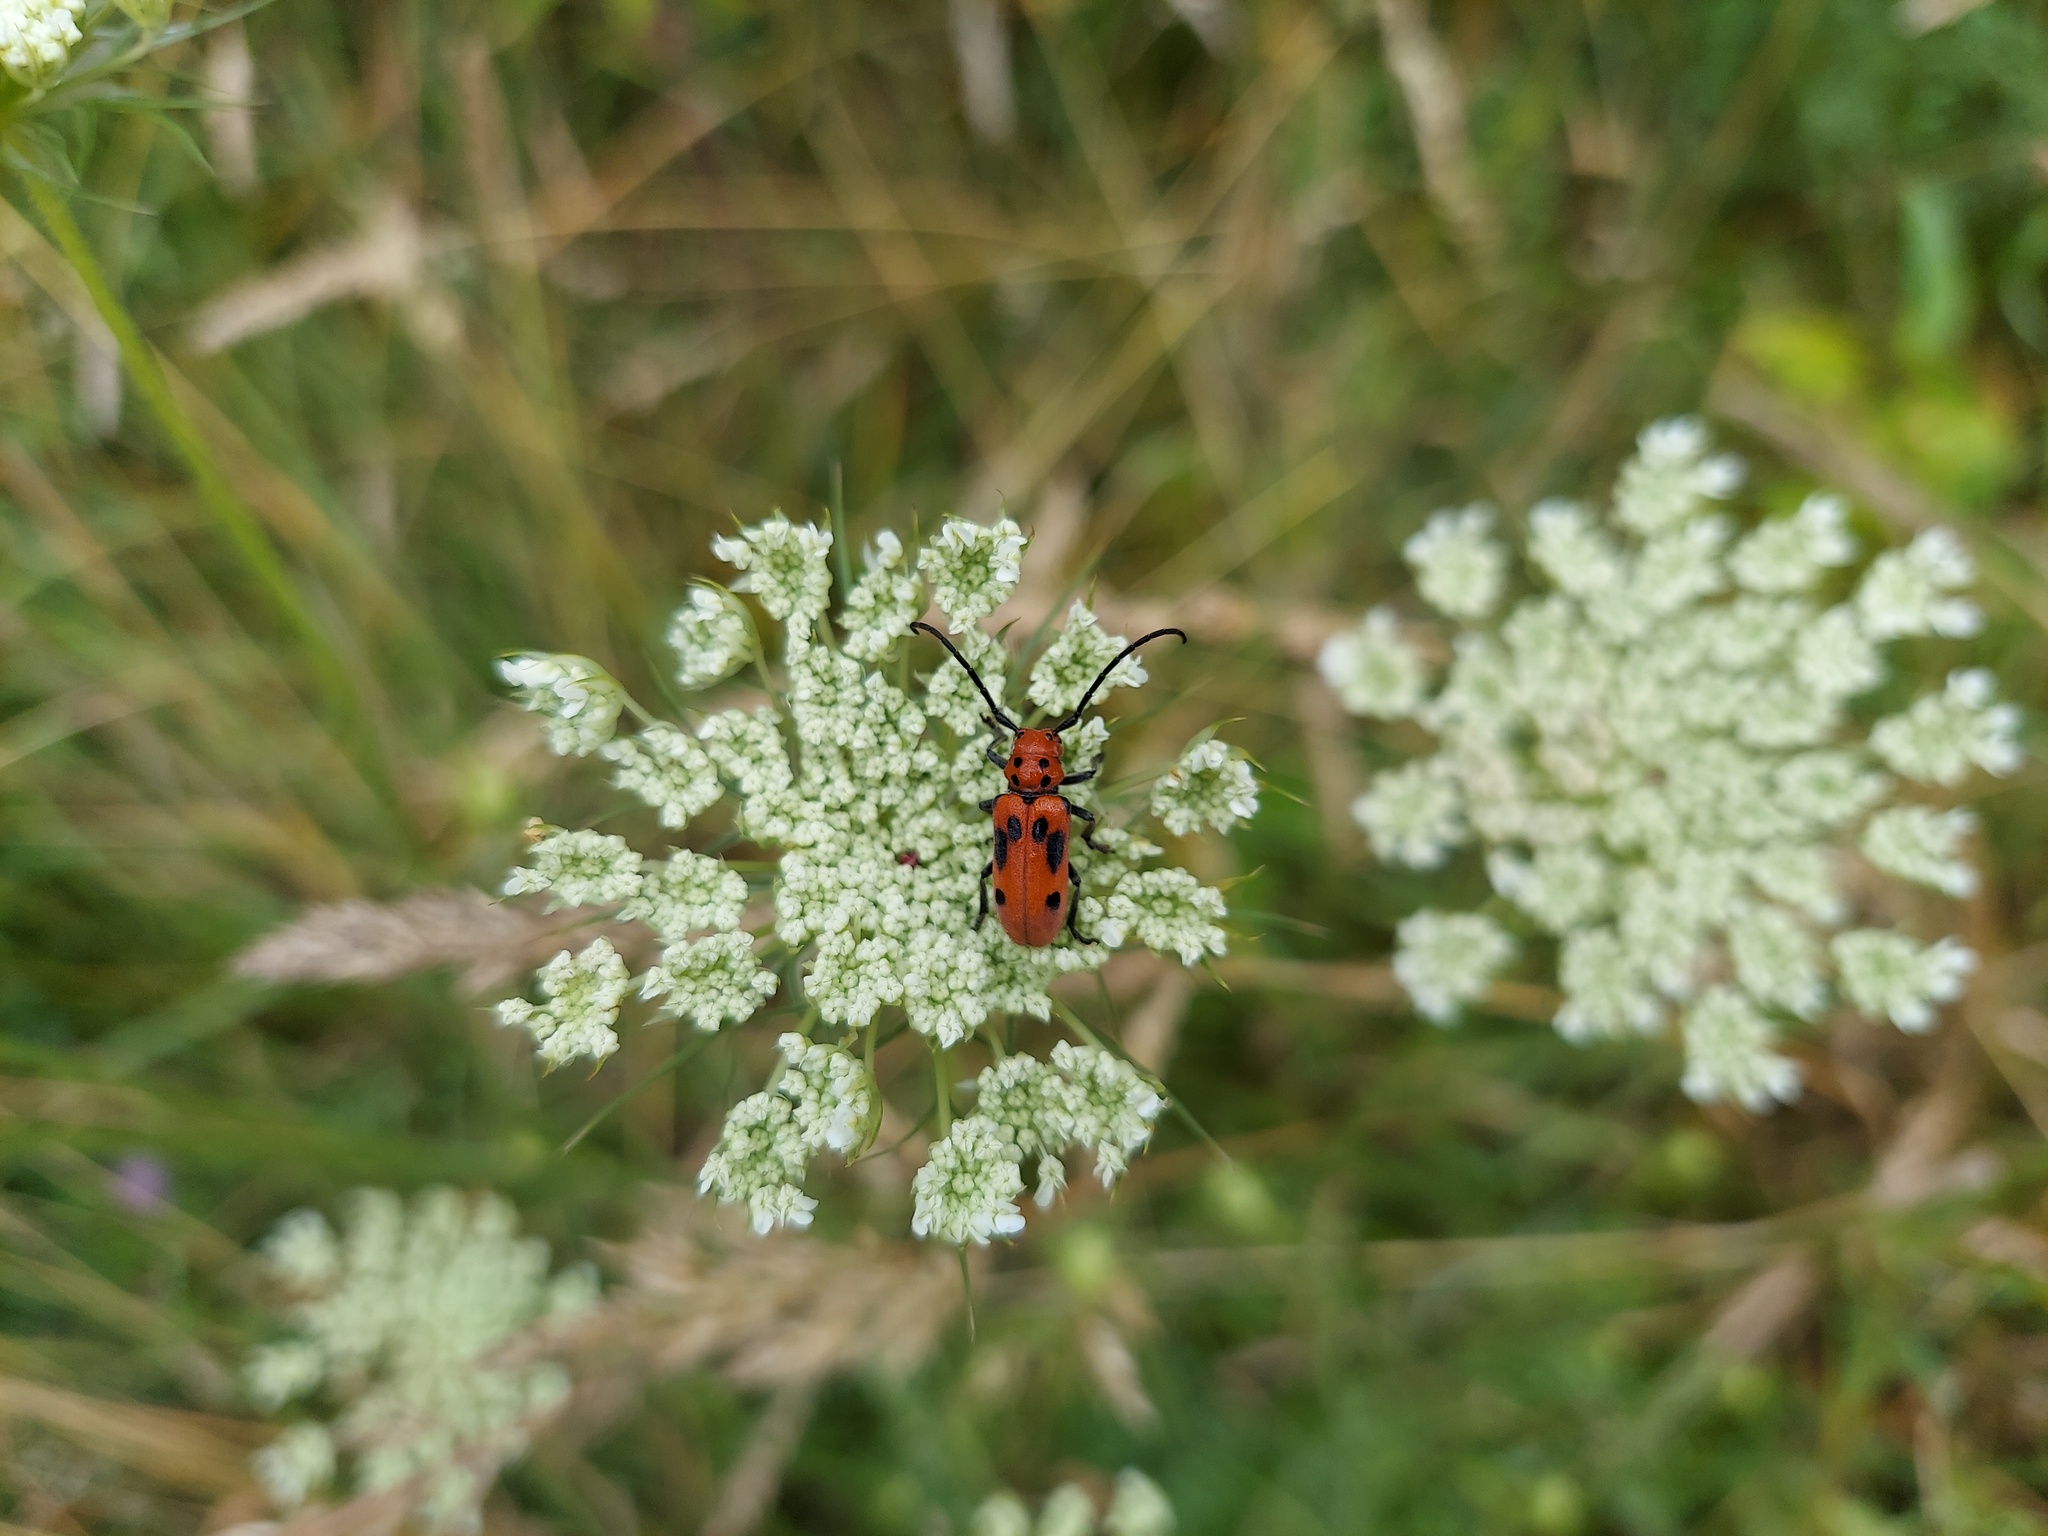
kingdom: Animalia
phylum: Arthropoda
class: Insecta
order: Coleoptera
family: Cerambycidae
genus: Tetraopes
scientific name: Tetraopes tetrophthalmus
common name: Red milkweed beetle
